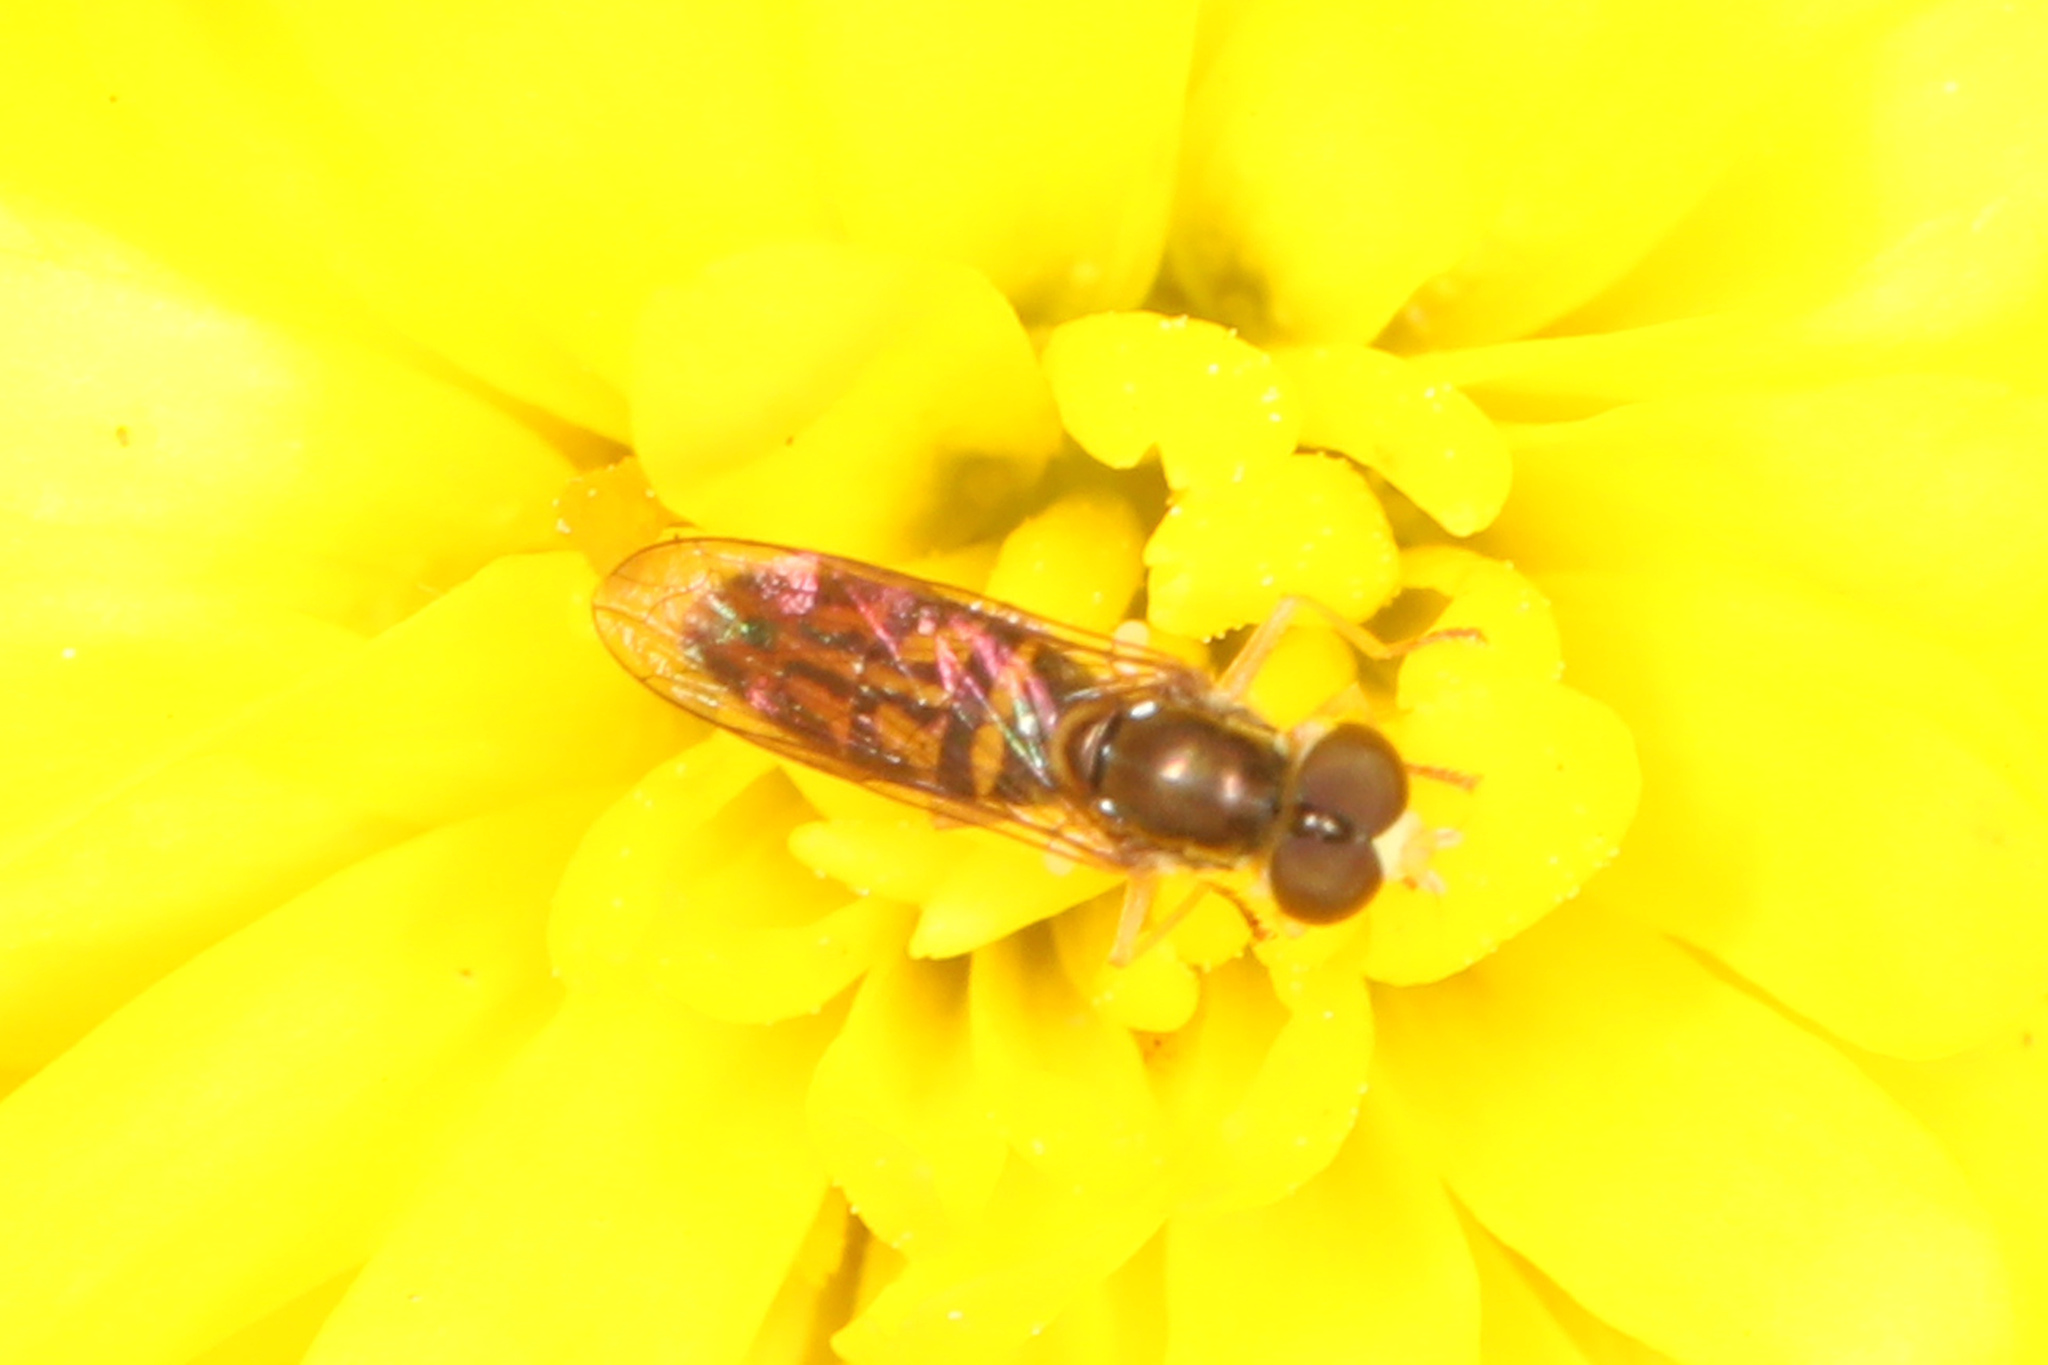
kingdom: Animalia
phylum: Arthropoda
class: Insecta
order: Diptera
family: Syrphidae
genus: Toxomerus
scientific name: Toxomerus marginatus
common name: Syrphid fly
